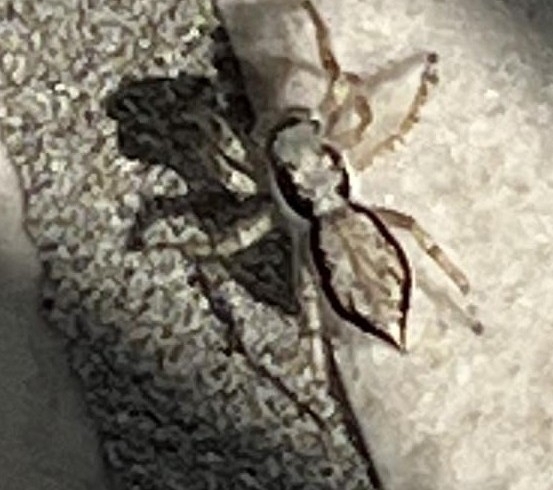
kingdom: Animalia
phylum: Arthropoda
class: Arachnida
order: Araneae
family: Salticidae
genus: Menemerus
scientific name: Menemerus bivittatus
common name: Gray wall jumper
